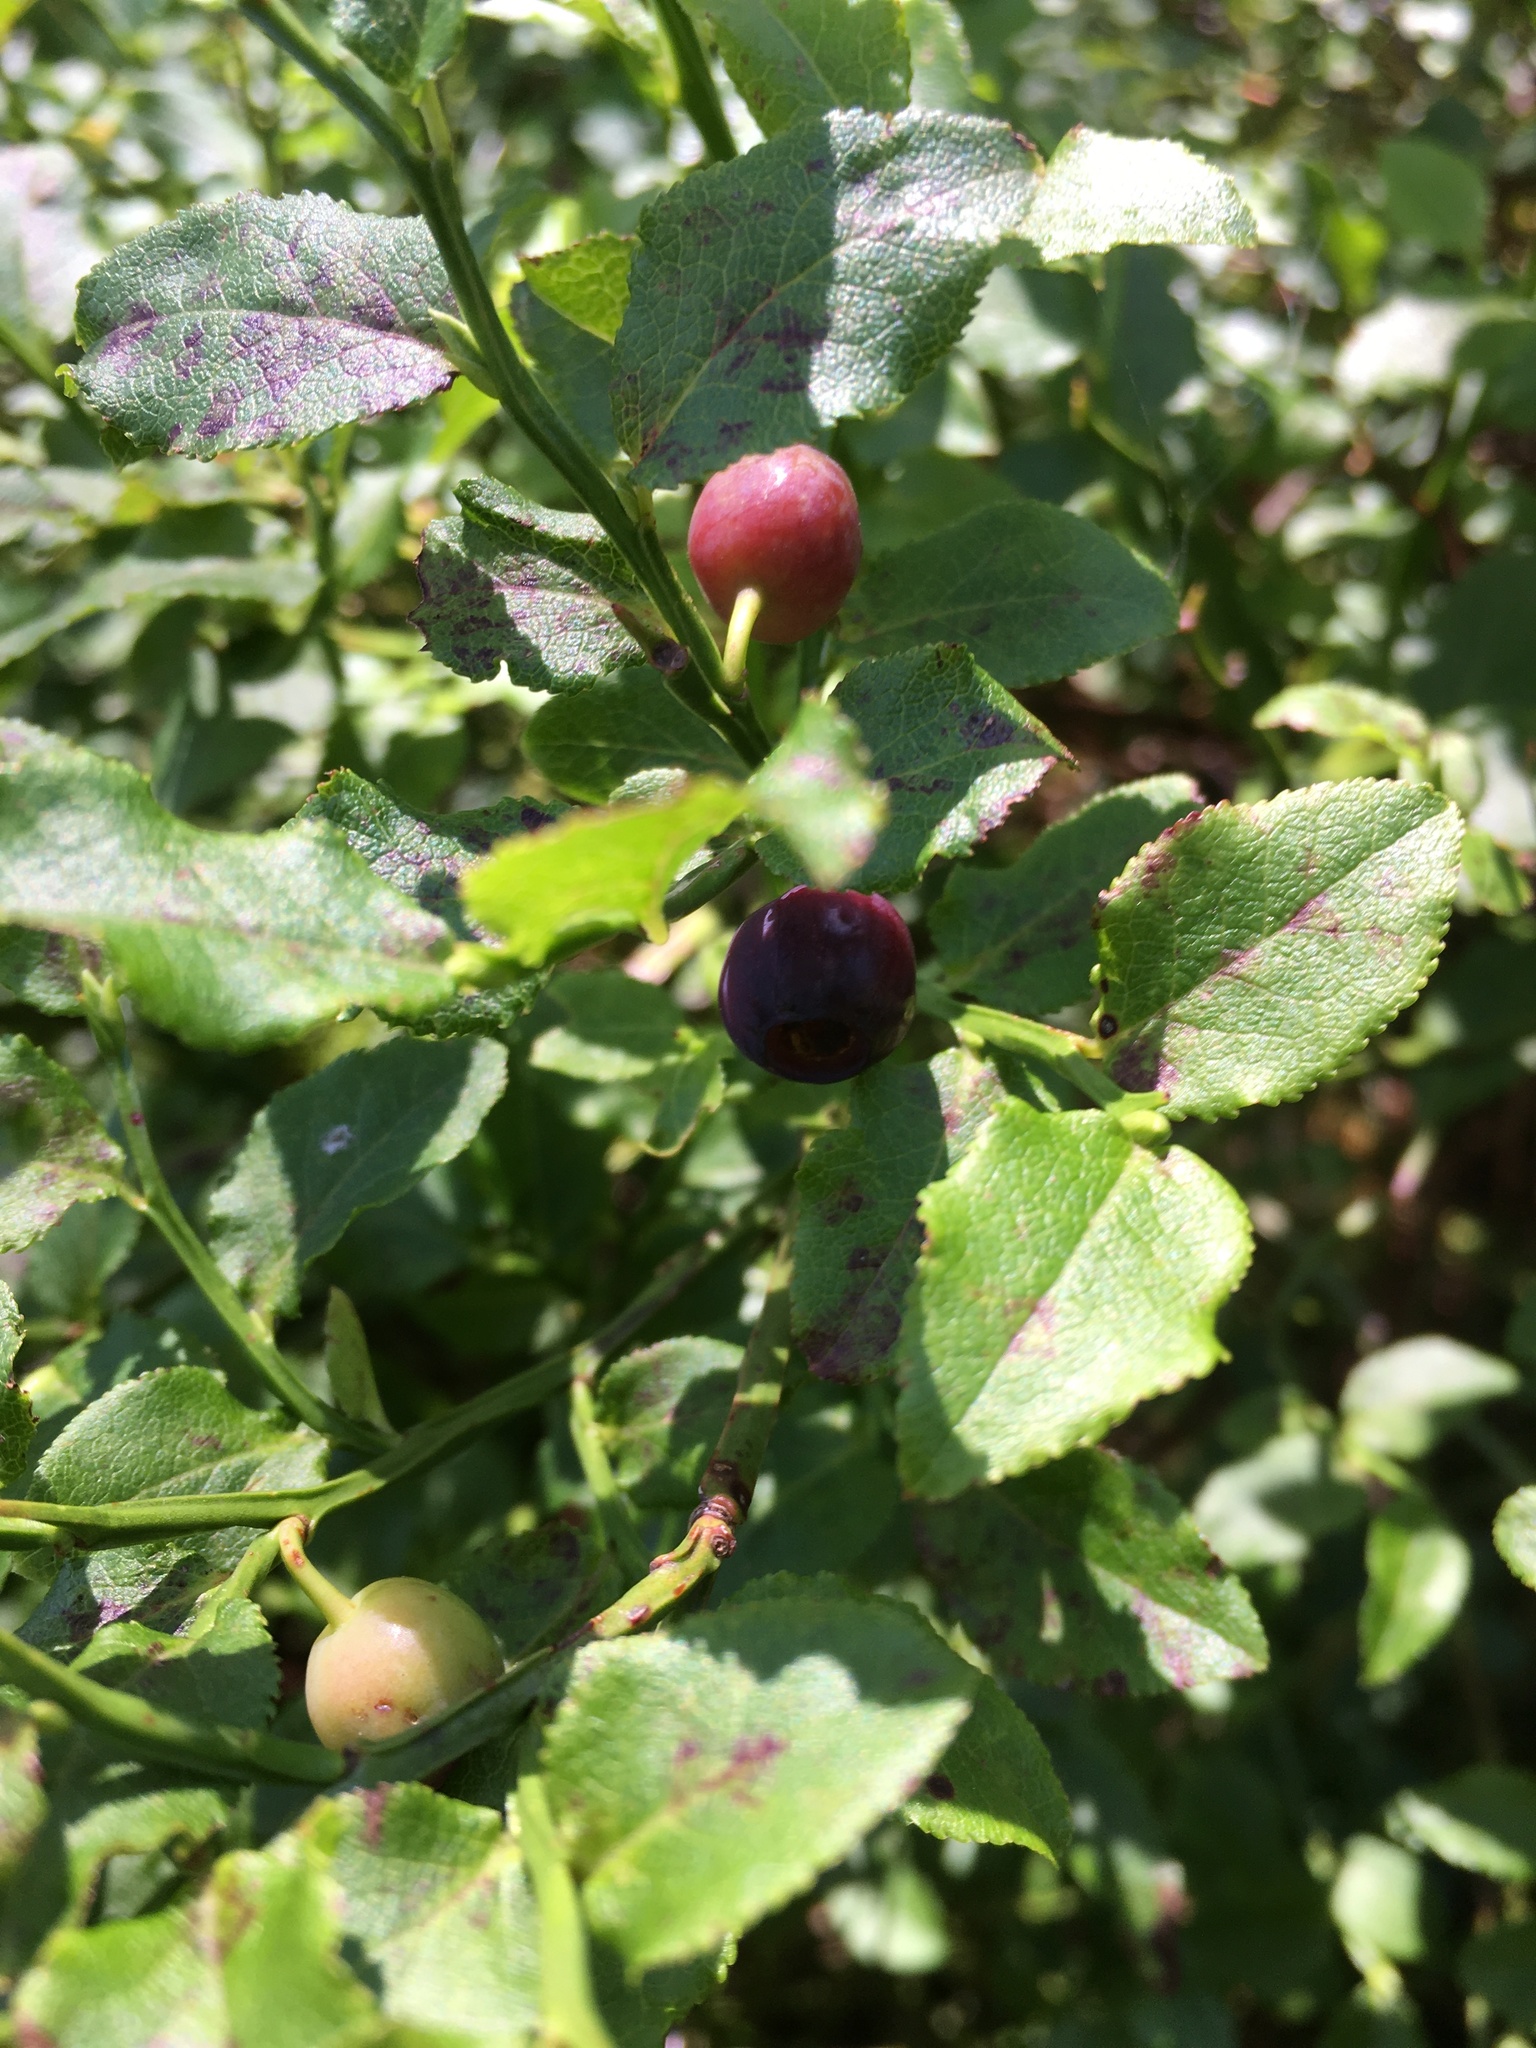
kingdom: Plantae
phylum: Tracheophyta
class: Magnoliopsida
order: Ericales
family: Ericaceae
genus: Vaccinium
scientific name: Vaccinium myrtillus
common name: Bilberry
